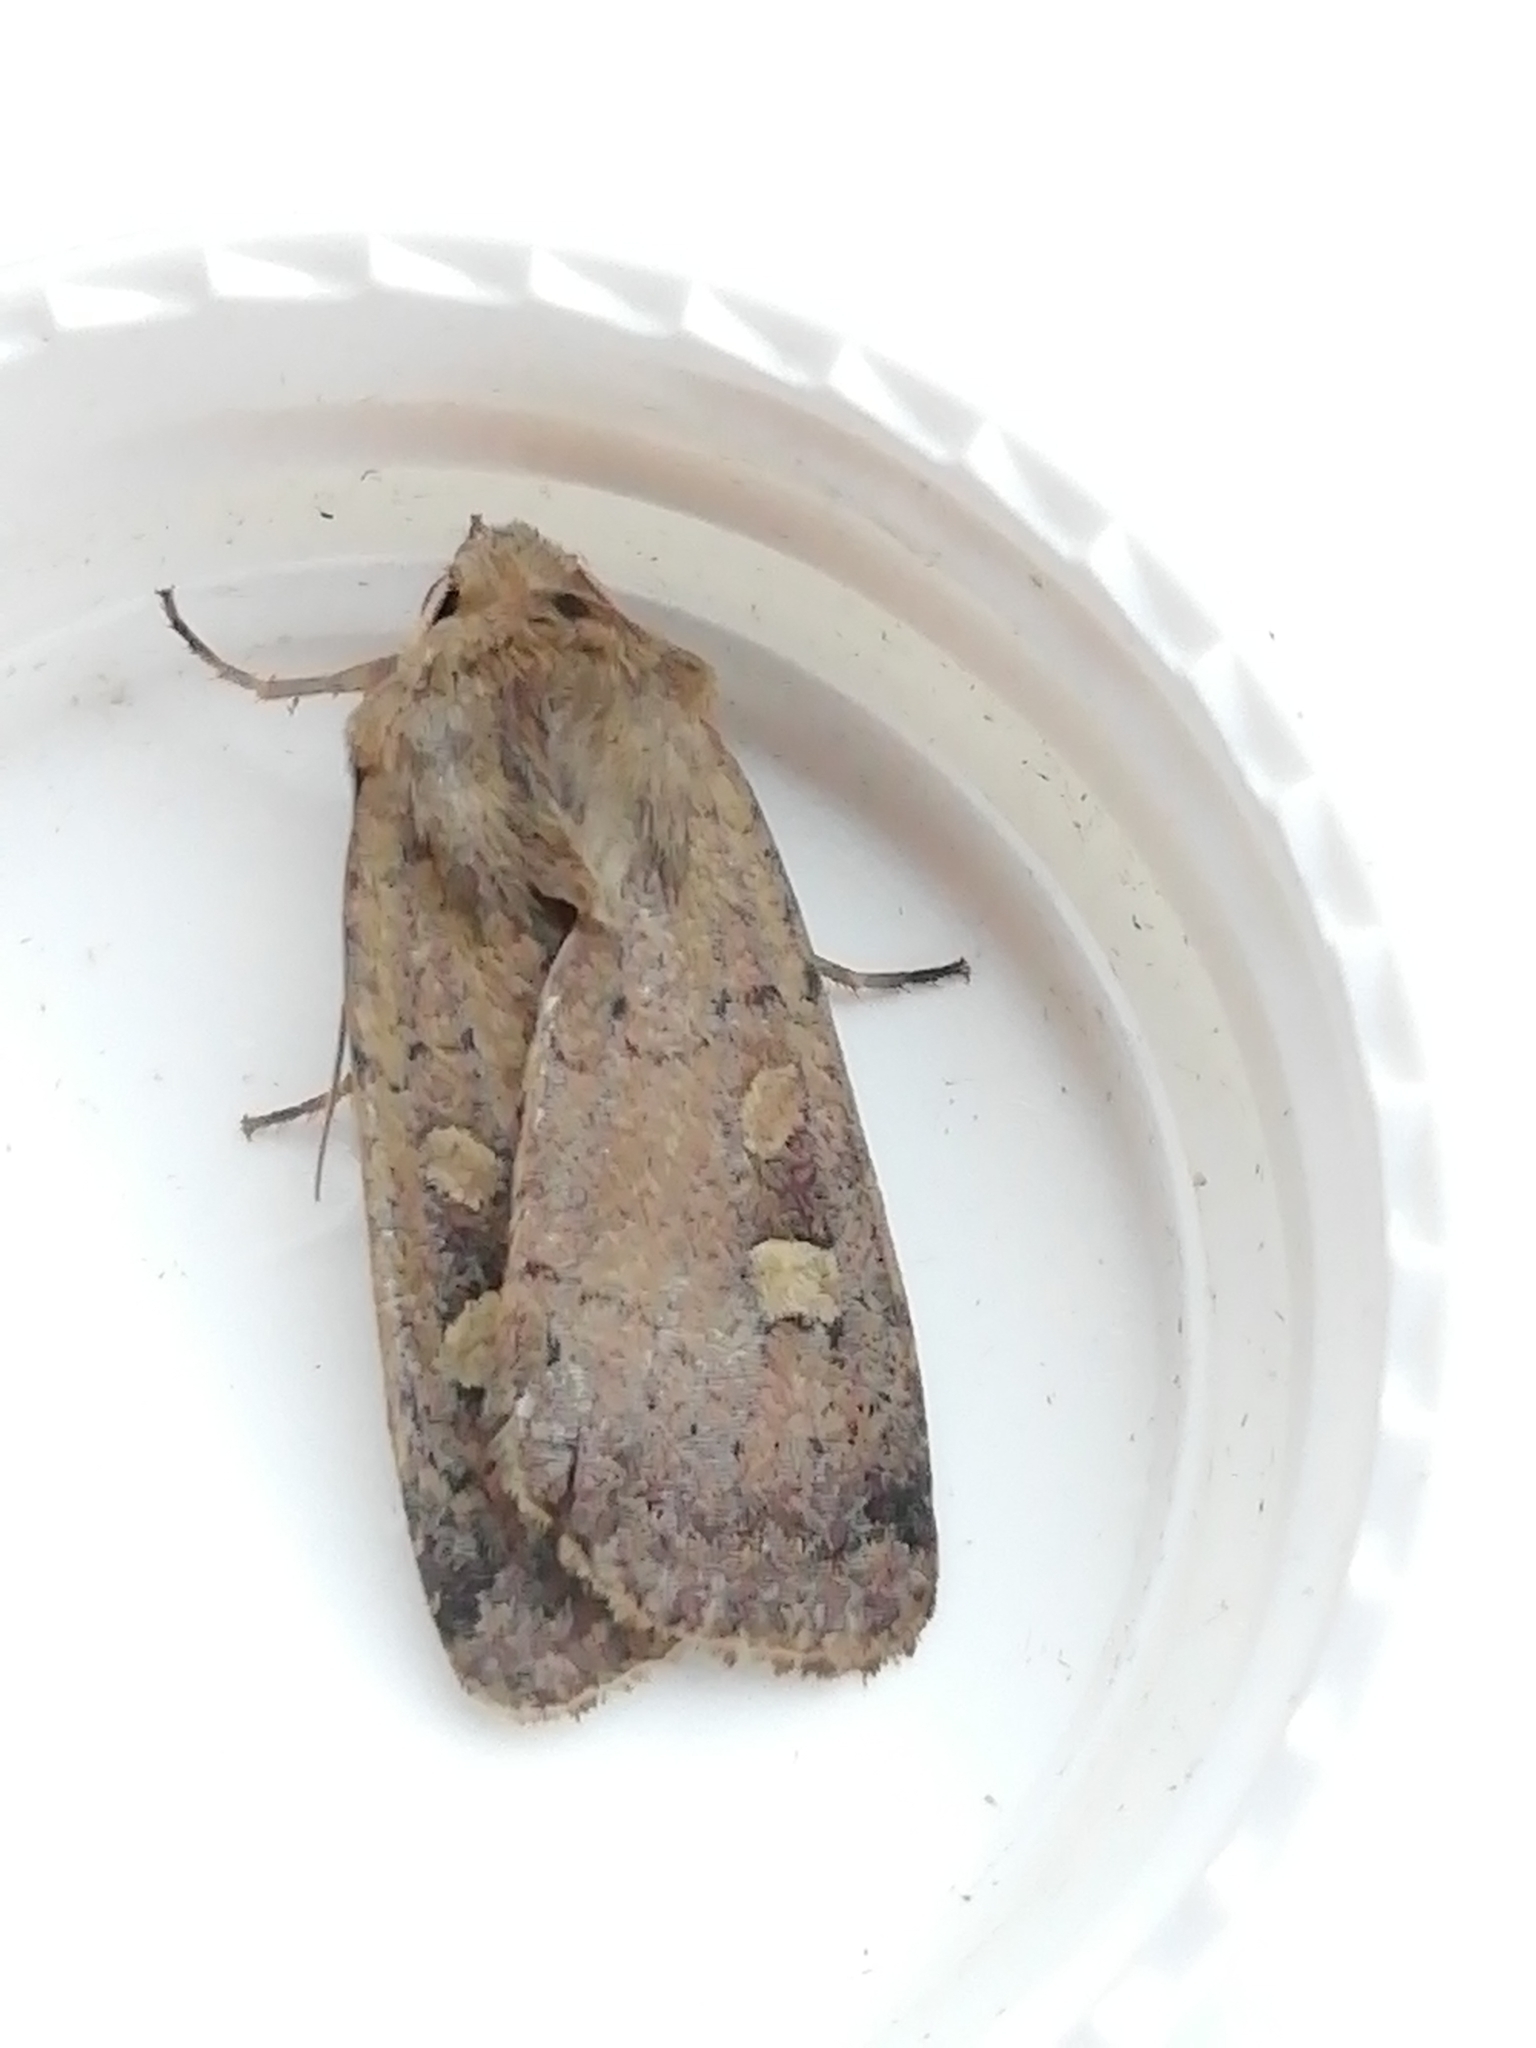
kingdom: Animalia
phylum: Arthropoda
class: Insecta
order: Lepidoptera
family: Noctuidae
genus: Xestia
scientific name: Xestia xanthographa
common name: Square-spot rustic
